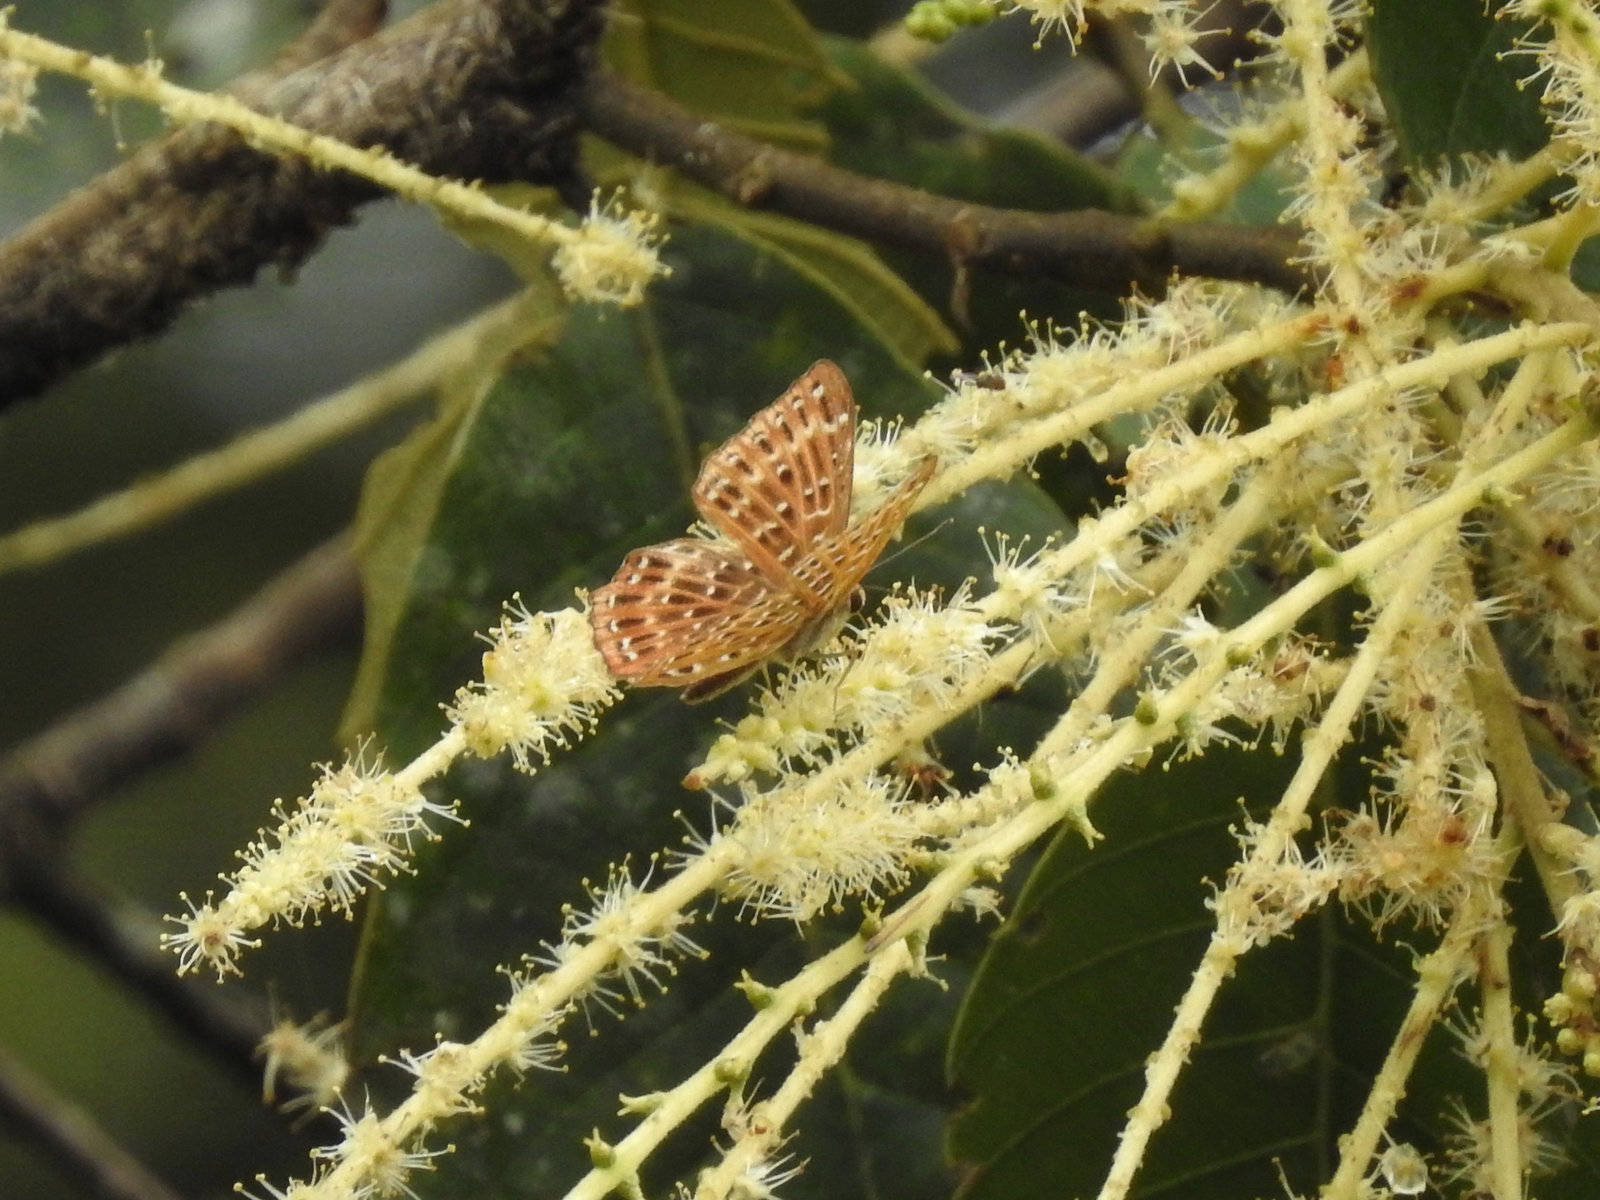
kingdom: Animalia
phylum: Arthropoda
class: Insecta
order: Lepidoptera
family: Riodinidae
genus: Zemeros
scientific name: Zemeros flegyas
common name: Punchinello
